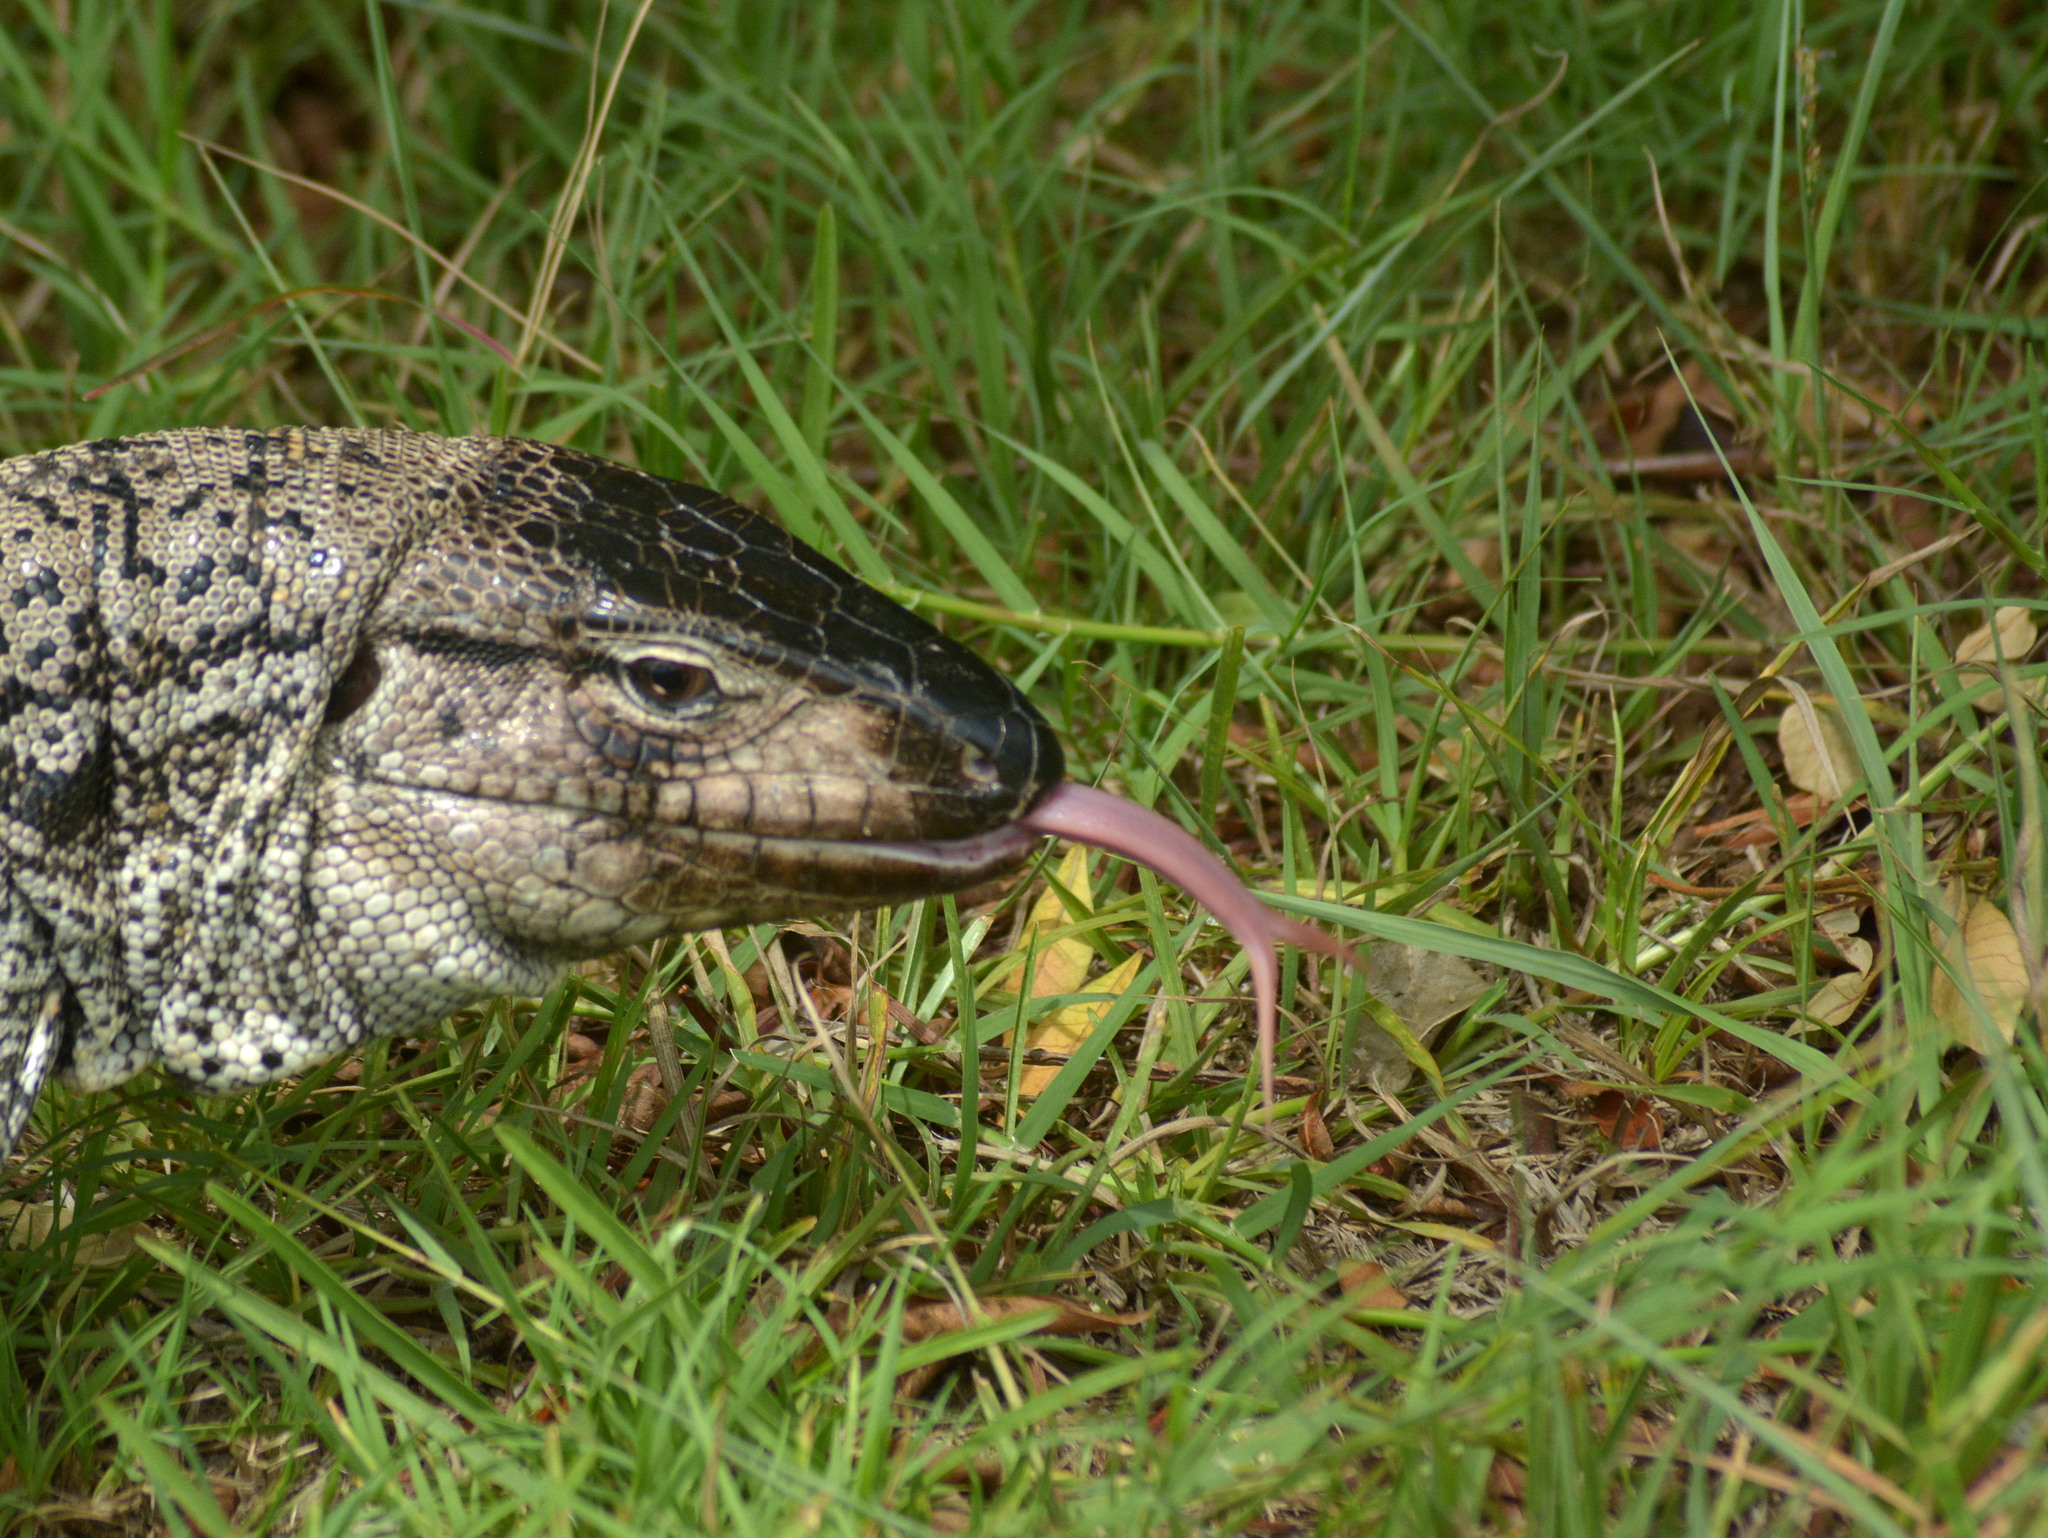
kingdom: Animalia
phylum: Chordata
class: Squamata
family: Teiidae
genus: Salvator
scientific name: Salvator merianae
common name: Argentine black and white tegu
